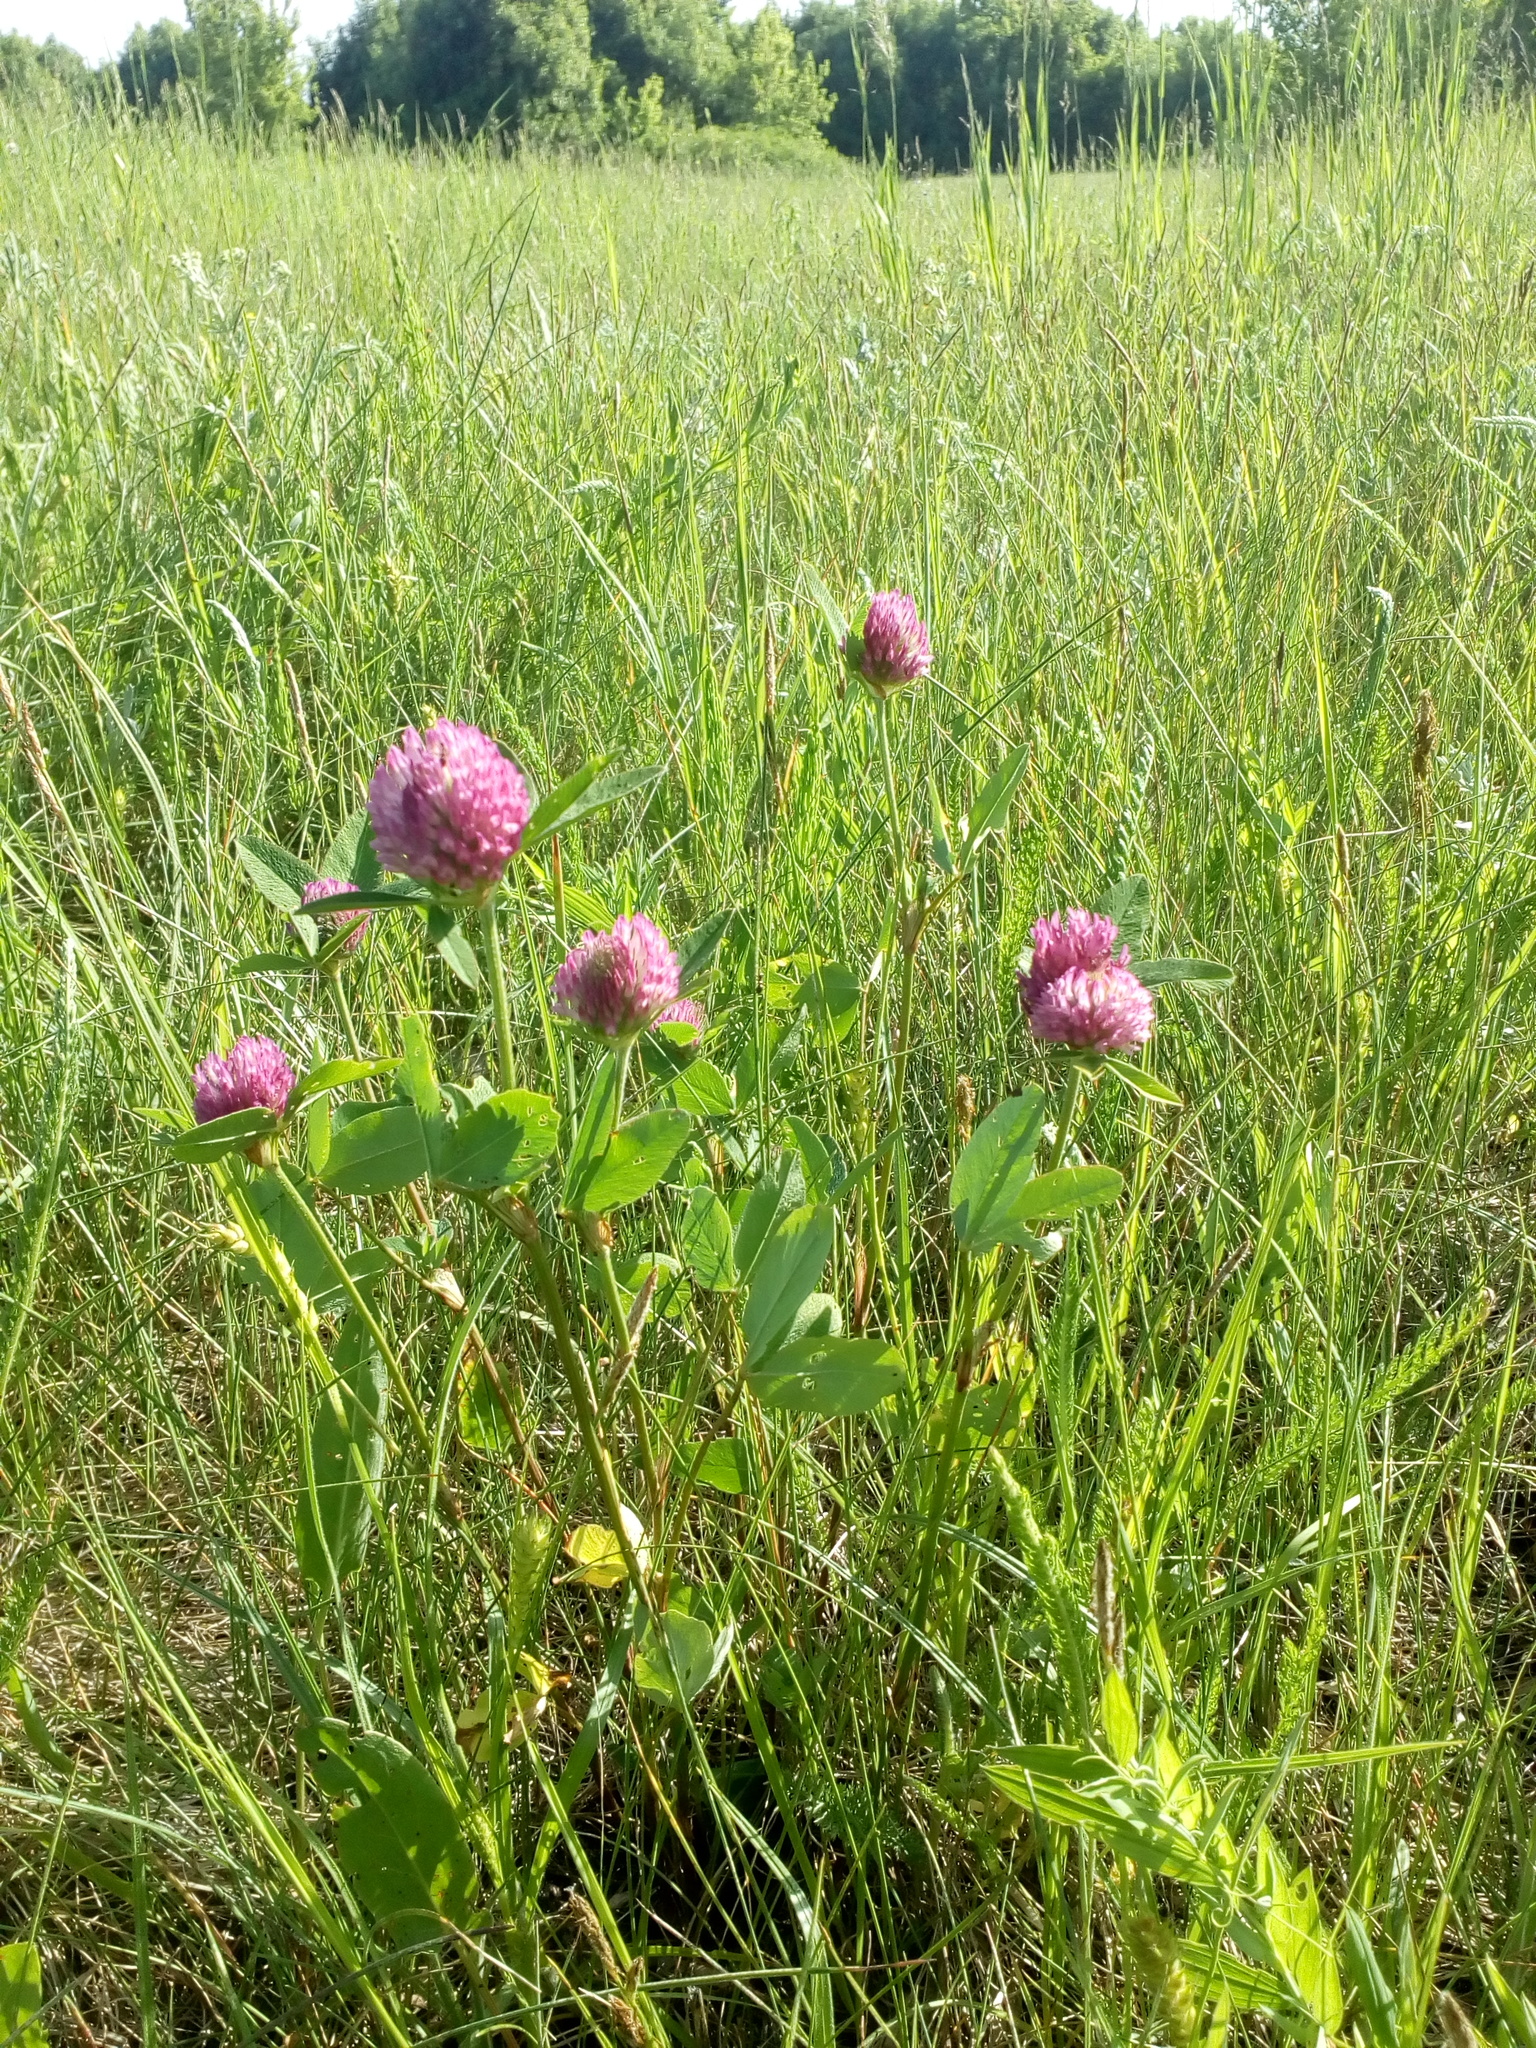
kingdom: Plantae
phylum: Tracheophyta
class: Magnoliopsida
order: Fabales
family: Fabaceae
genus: Trifolium
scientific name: Trifolium pratense
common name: Red clover
